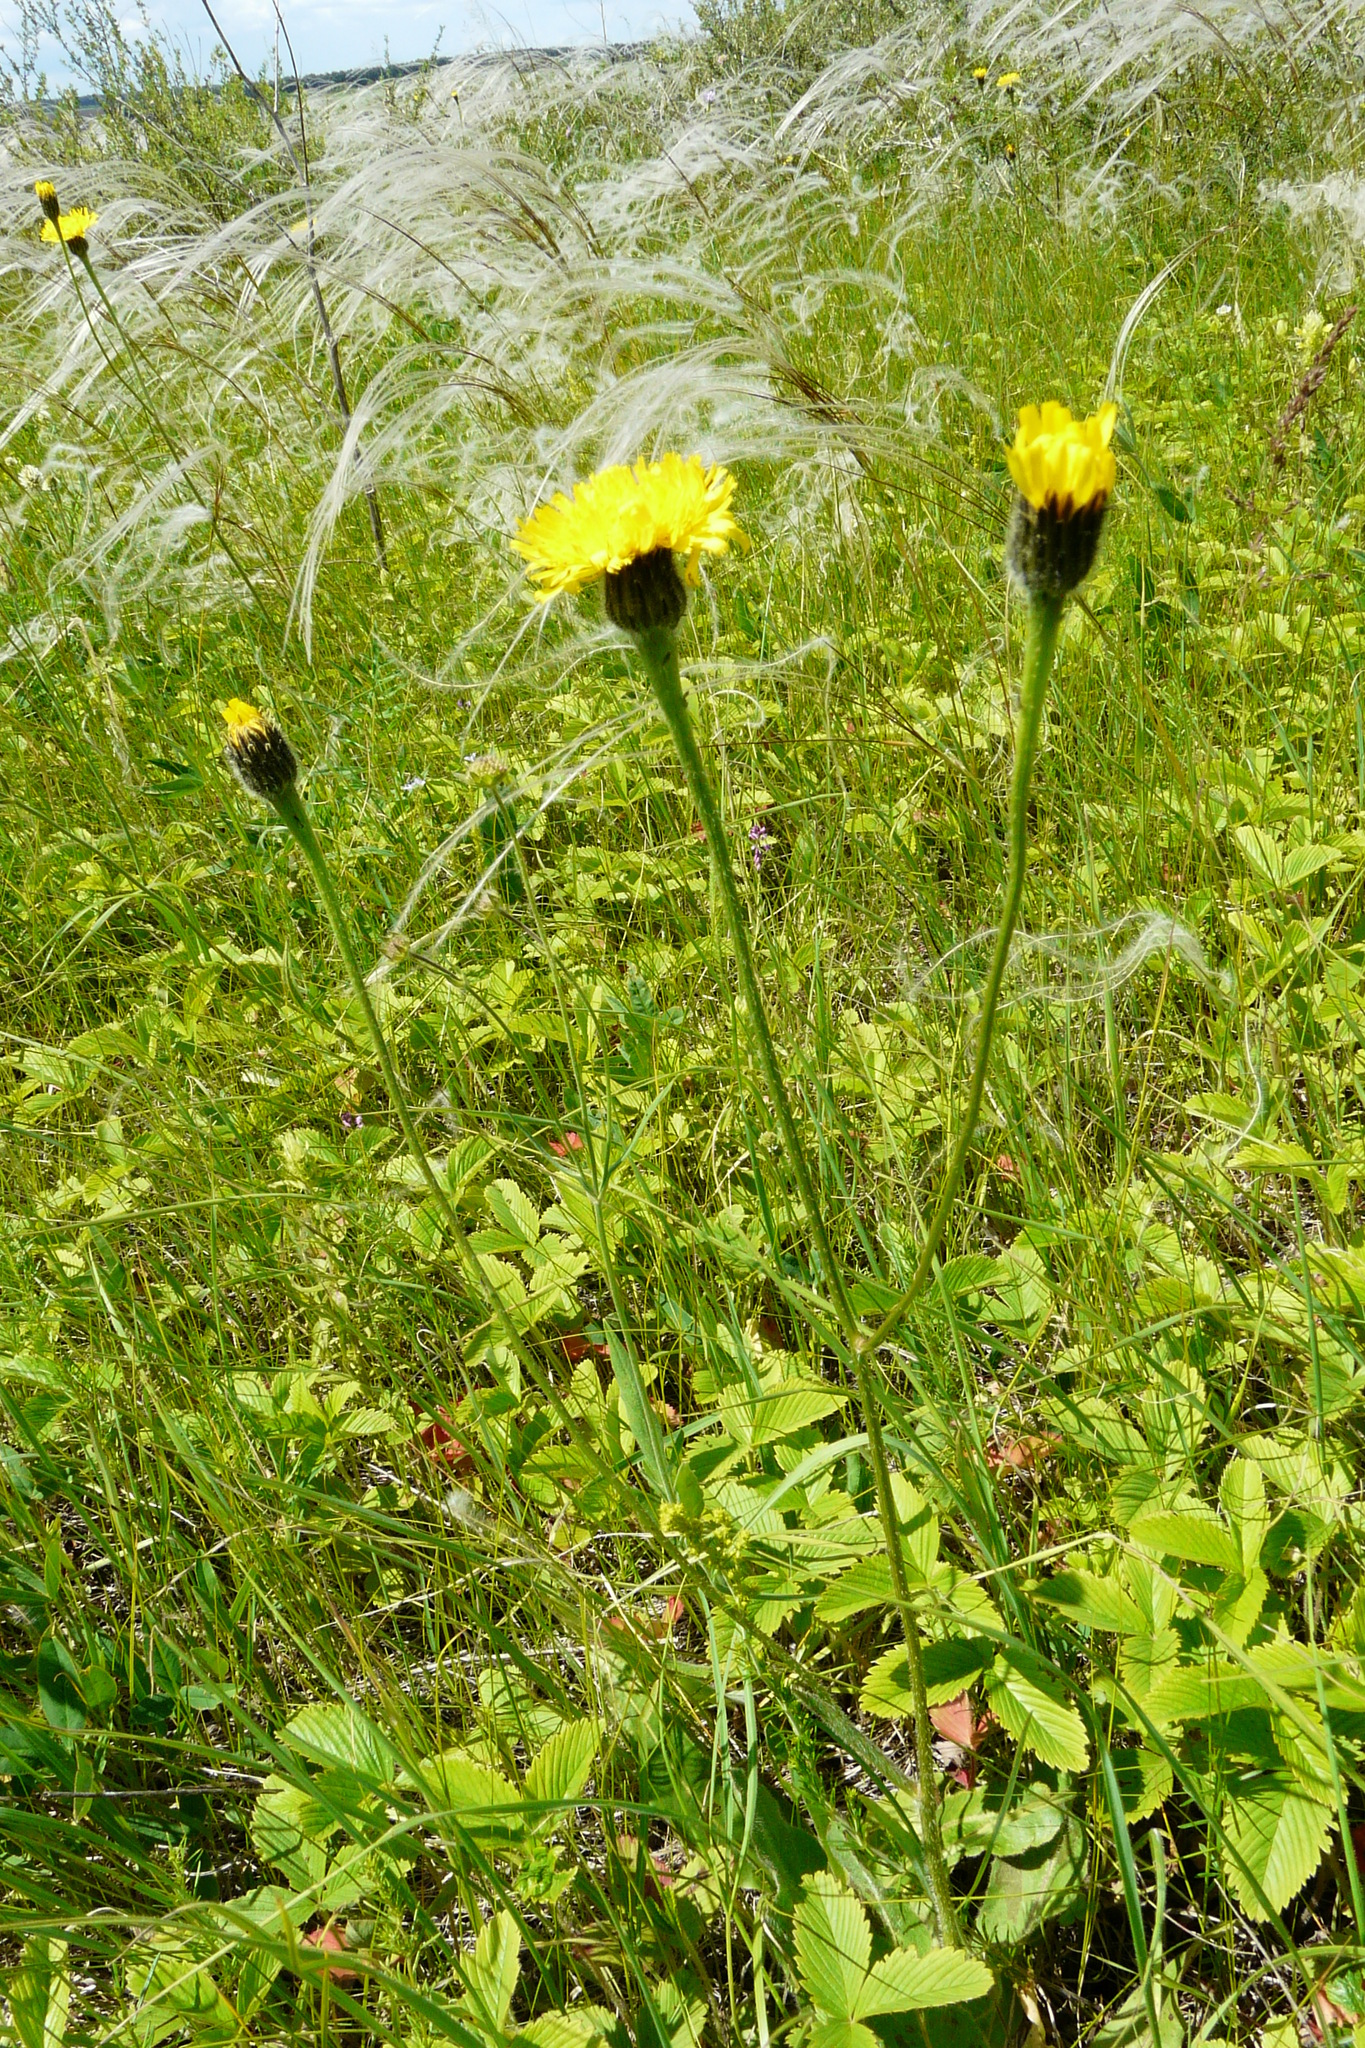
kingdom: Plantae
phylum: Tracheophyta
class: Magnoliopsida
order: Asterales
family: Asteraceae
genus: Trommsdorffia
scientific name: Trommsdorffia maculata
